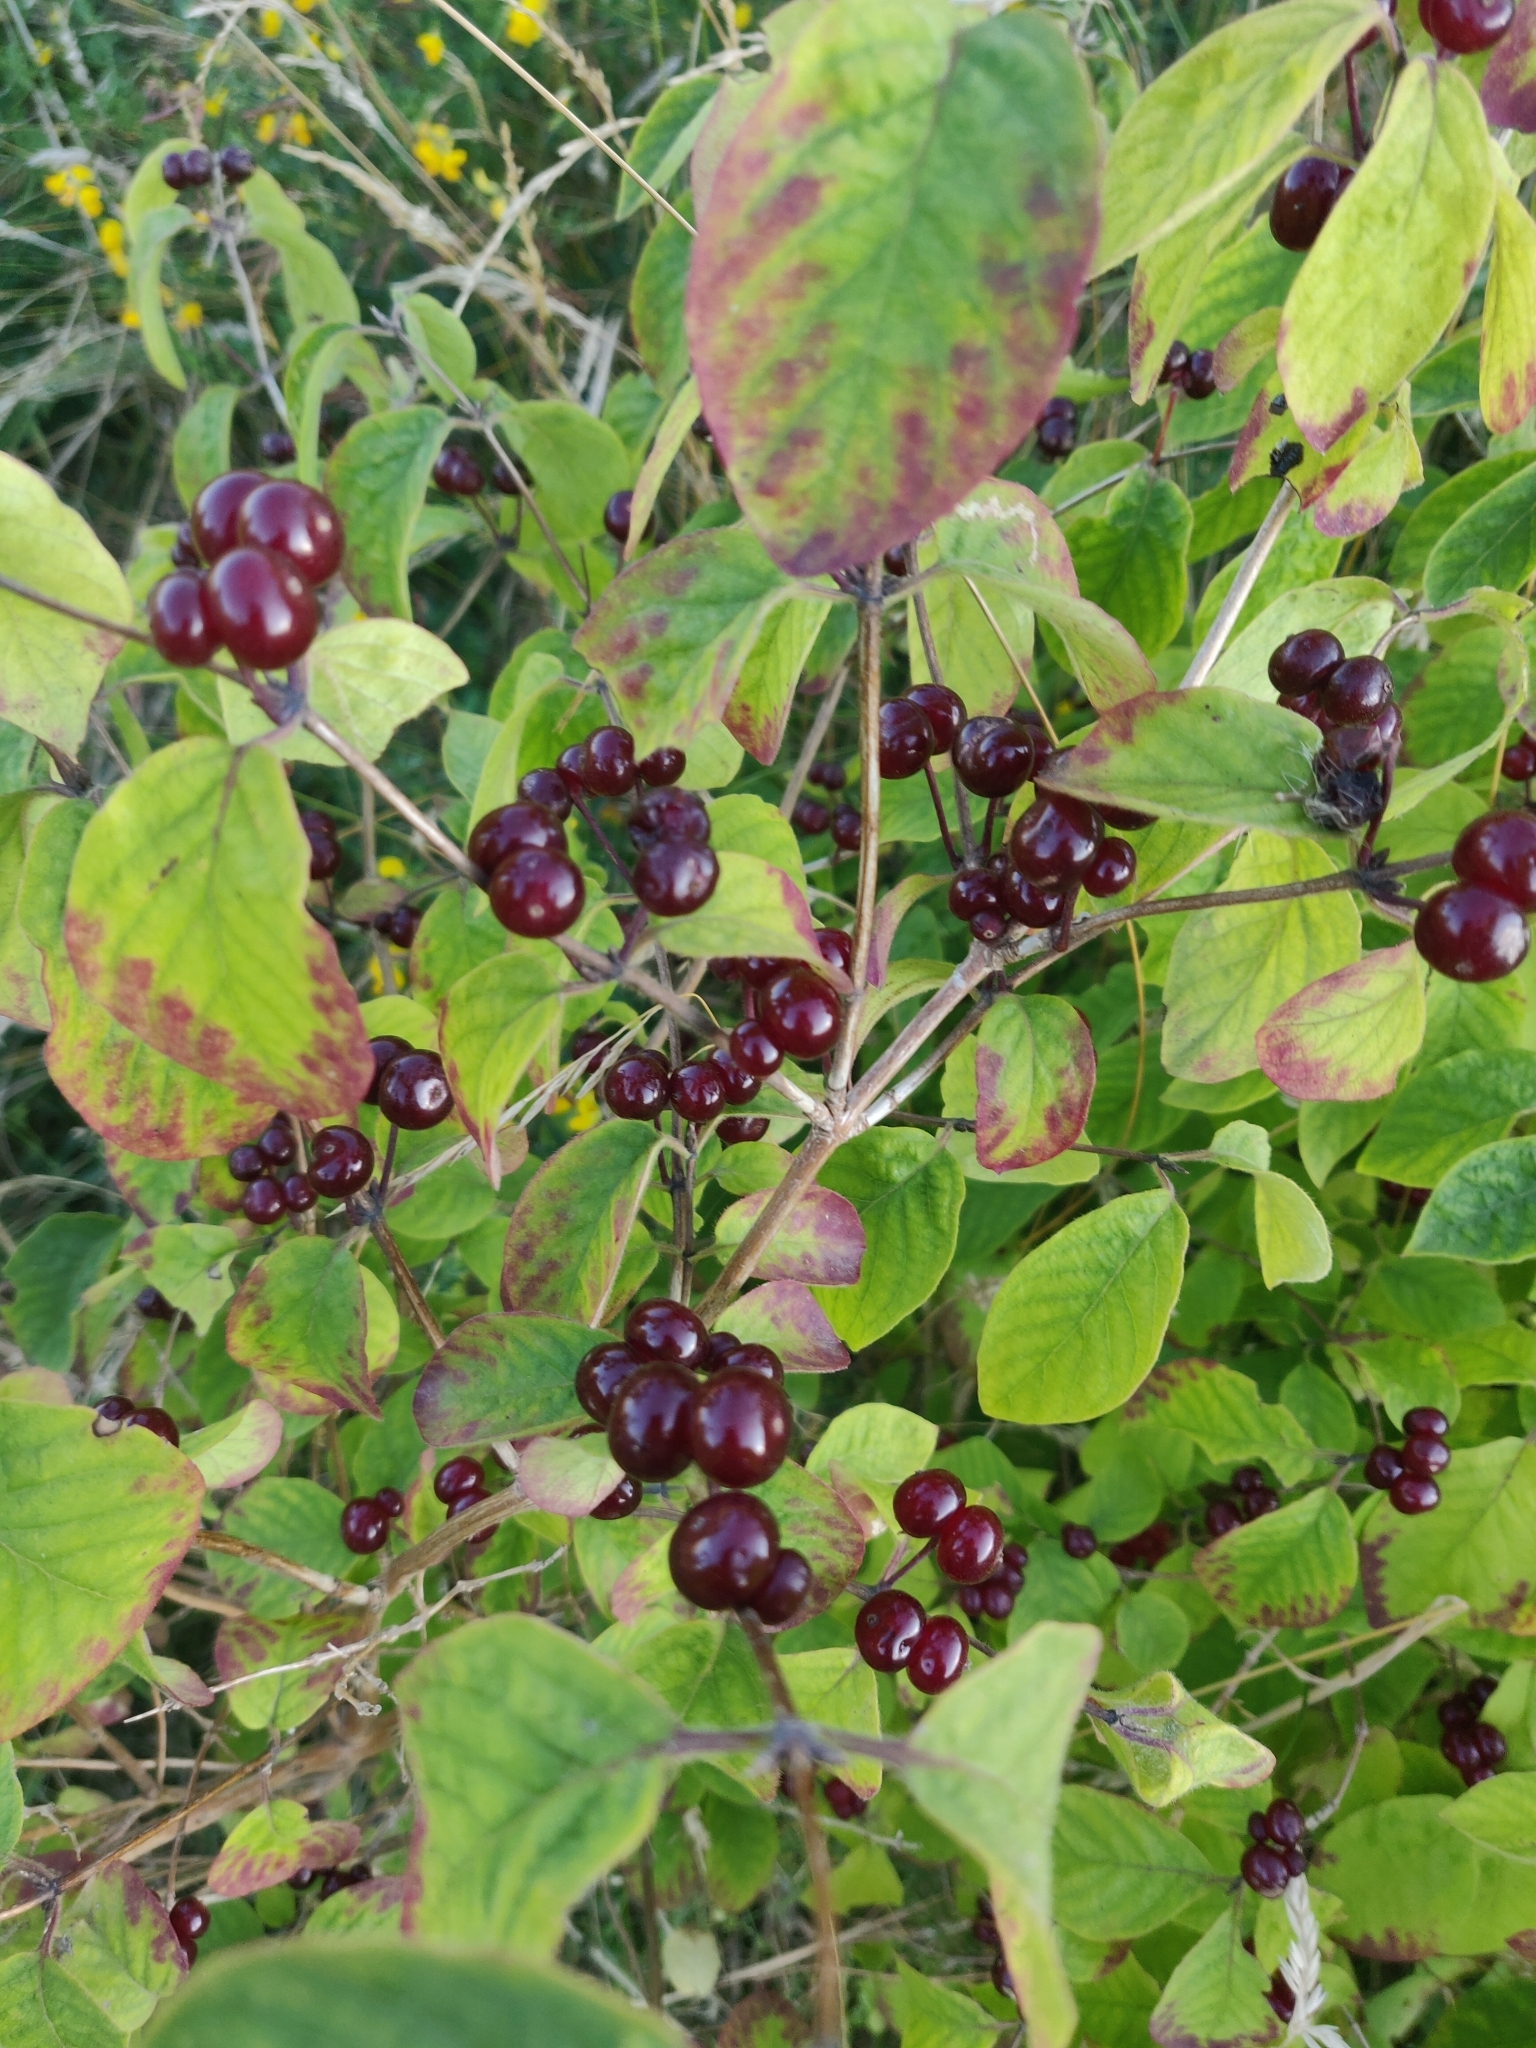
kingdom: Plantae
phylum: Tracheophyta
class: Magnoliopsida
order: Dipsacales
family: Caprifoliaceae
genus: Lonicera
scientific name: Lonicera xylosteum
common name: Fly honeysuckle
